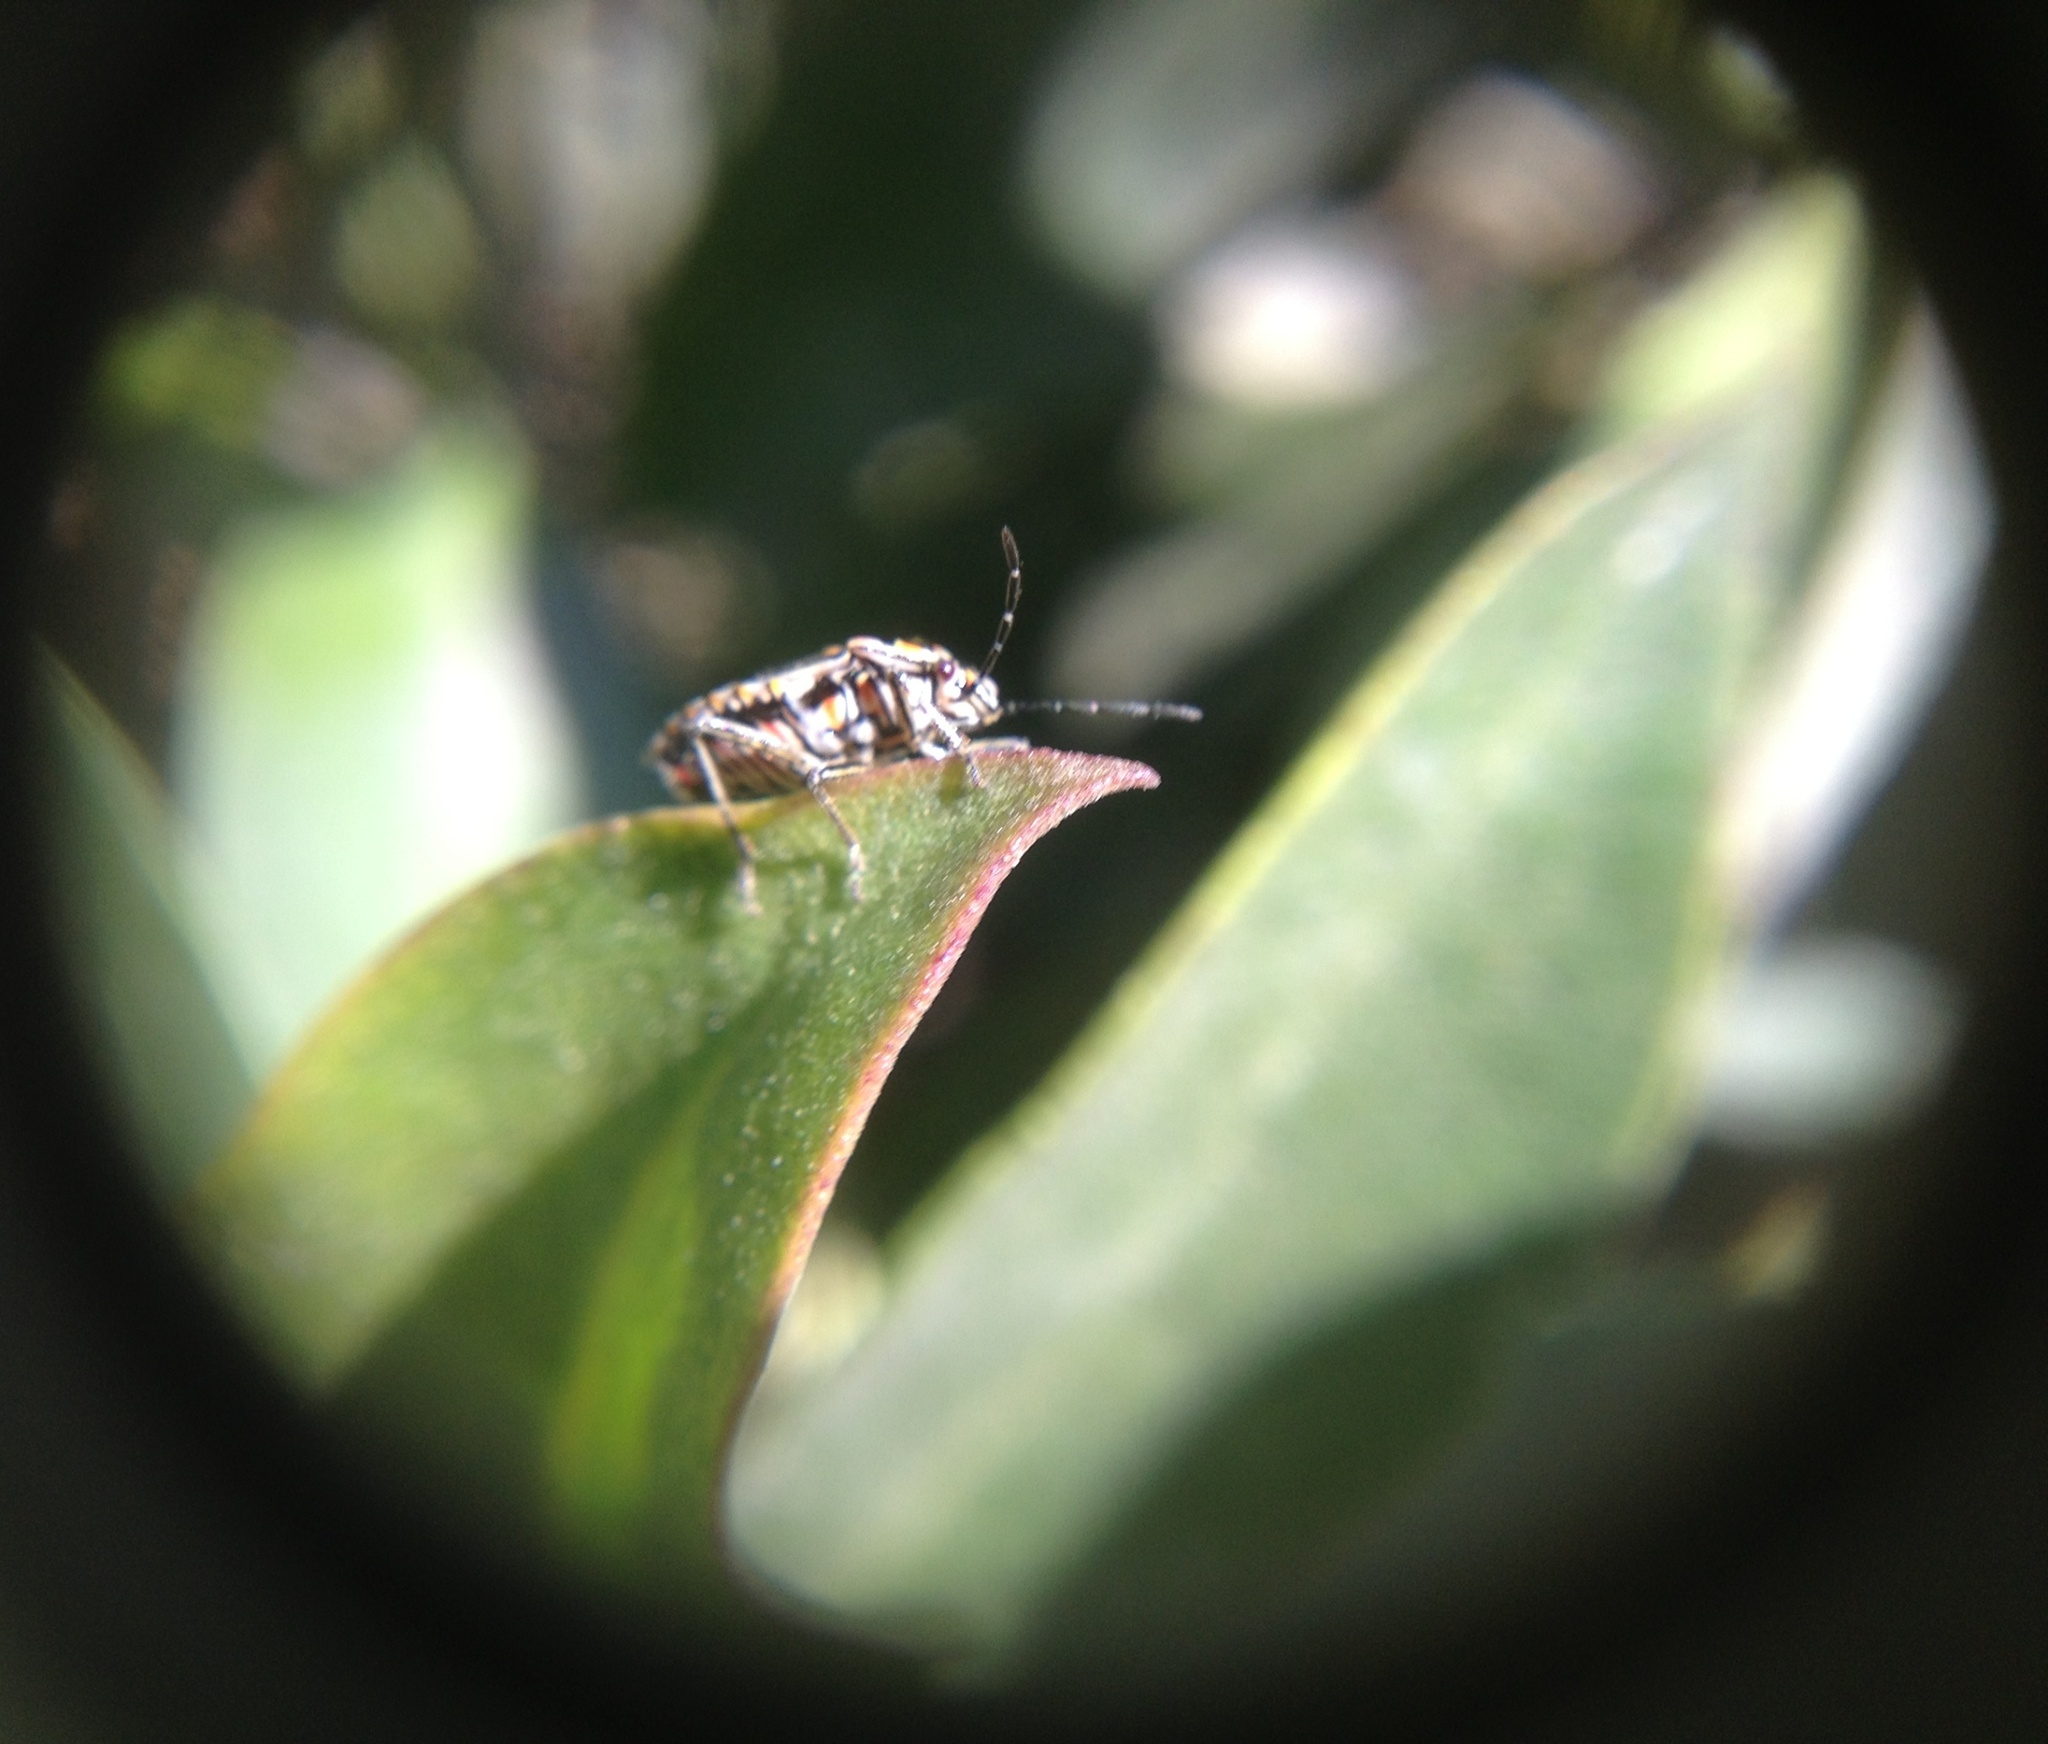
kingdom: Animalia
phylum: Arthropoda
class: Insecta
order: Hemiptera
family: Pentatomidae
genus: Bagrada
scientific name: Bagrada hilaris
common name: Bagrada bug
